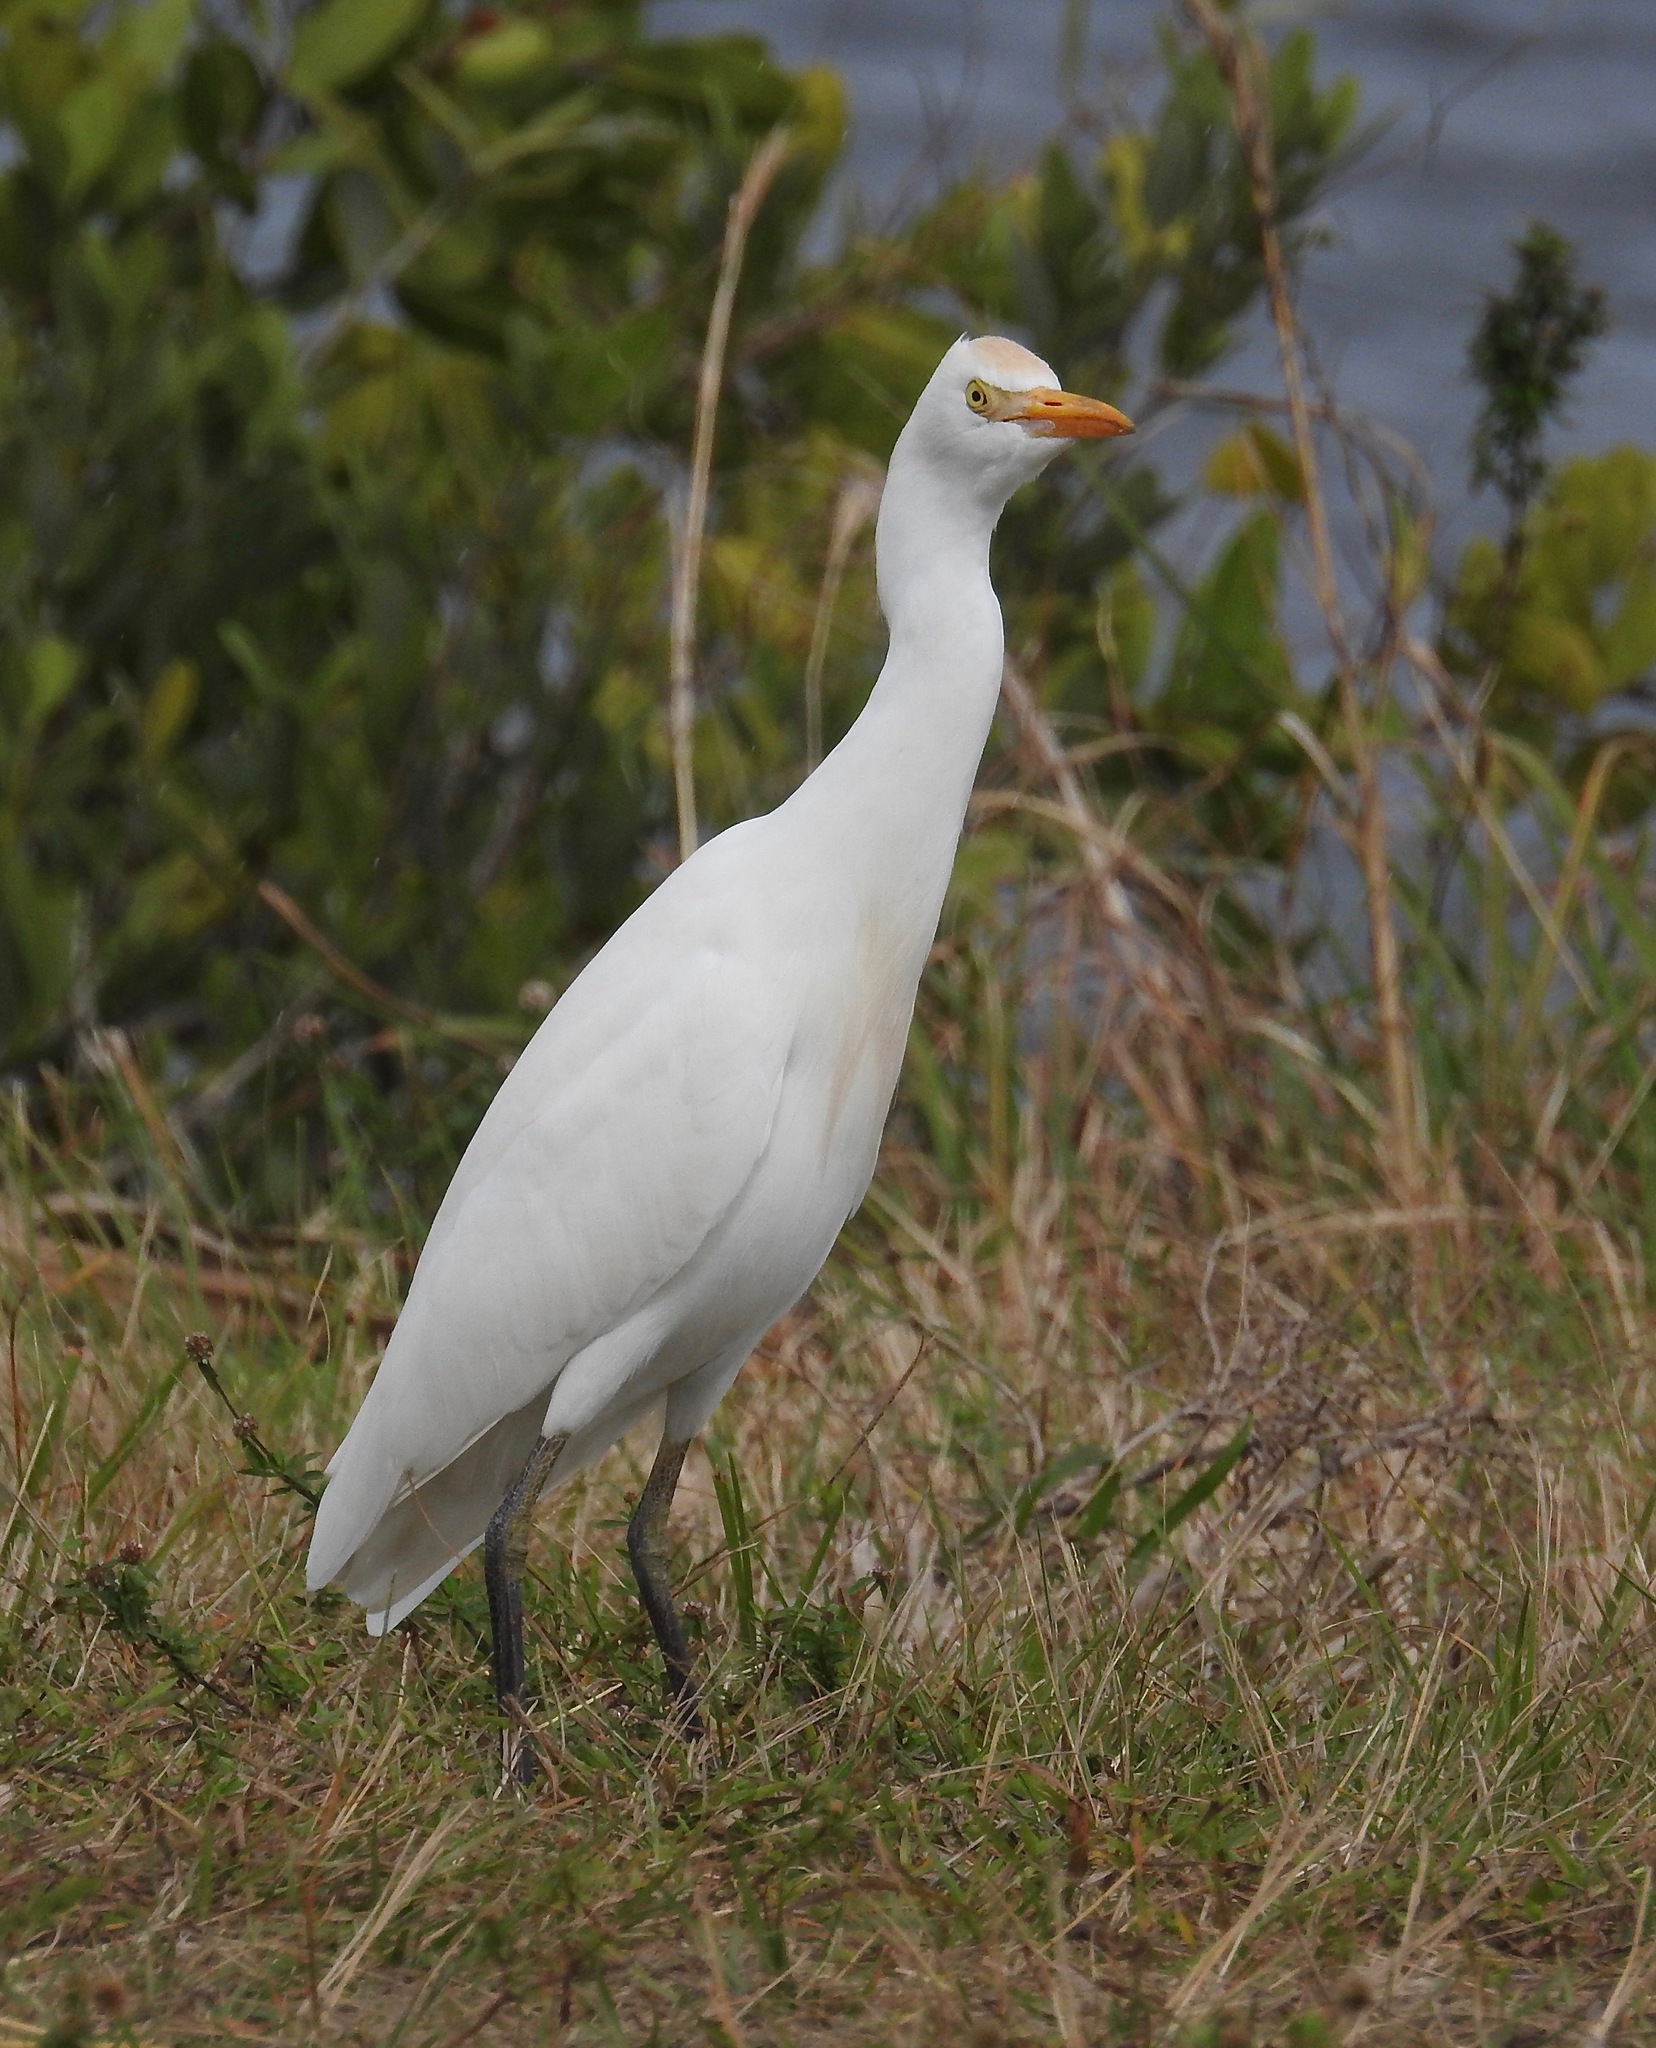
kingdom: Animalia
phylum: Chordata
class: Aves
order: Pelecaniformes
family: Ardeidae
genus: Bubulcus
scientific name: Bubulcus ibis
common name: Cattle egret
